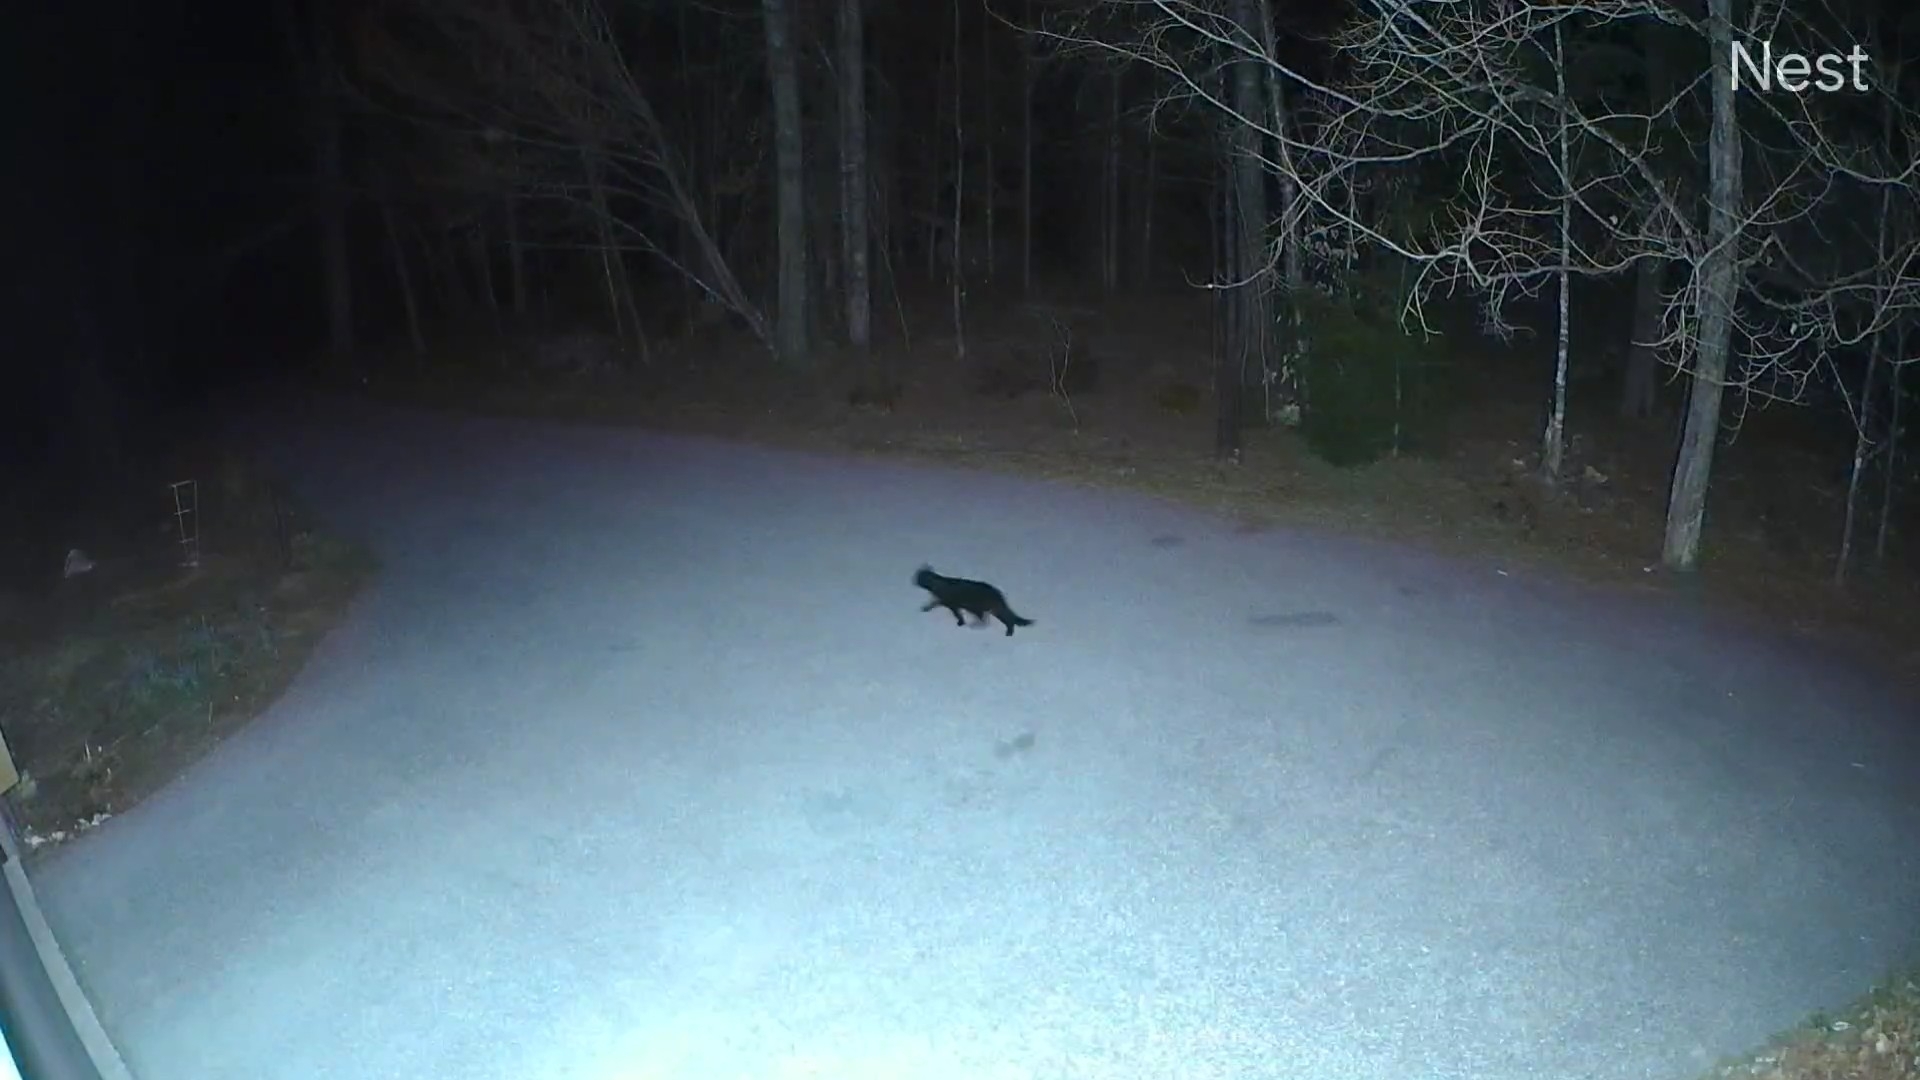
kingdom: Animalia
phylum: Chordata
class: Mammalia
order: Carnivora
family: Felidae
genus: Felis
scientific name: Felis catus
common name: Domestic cat
